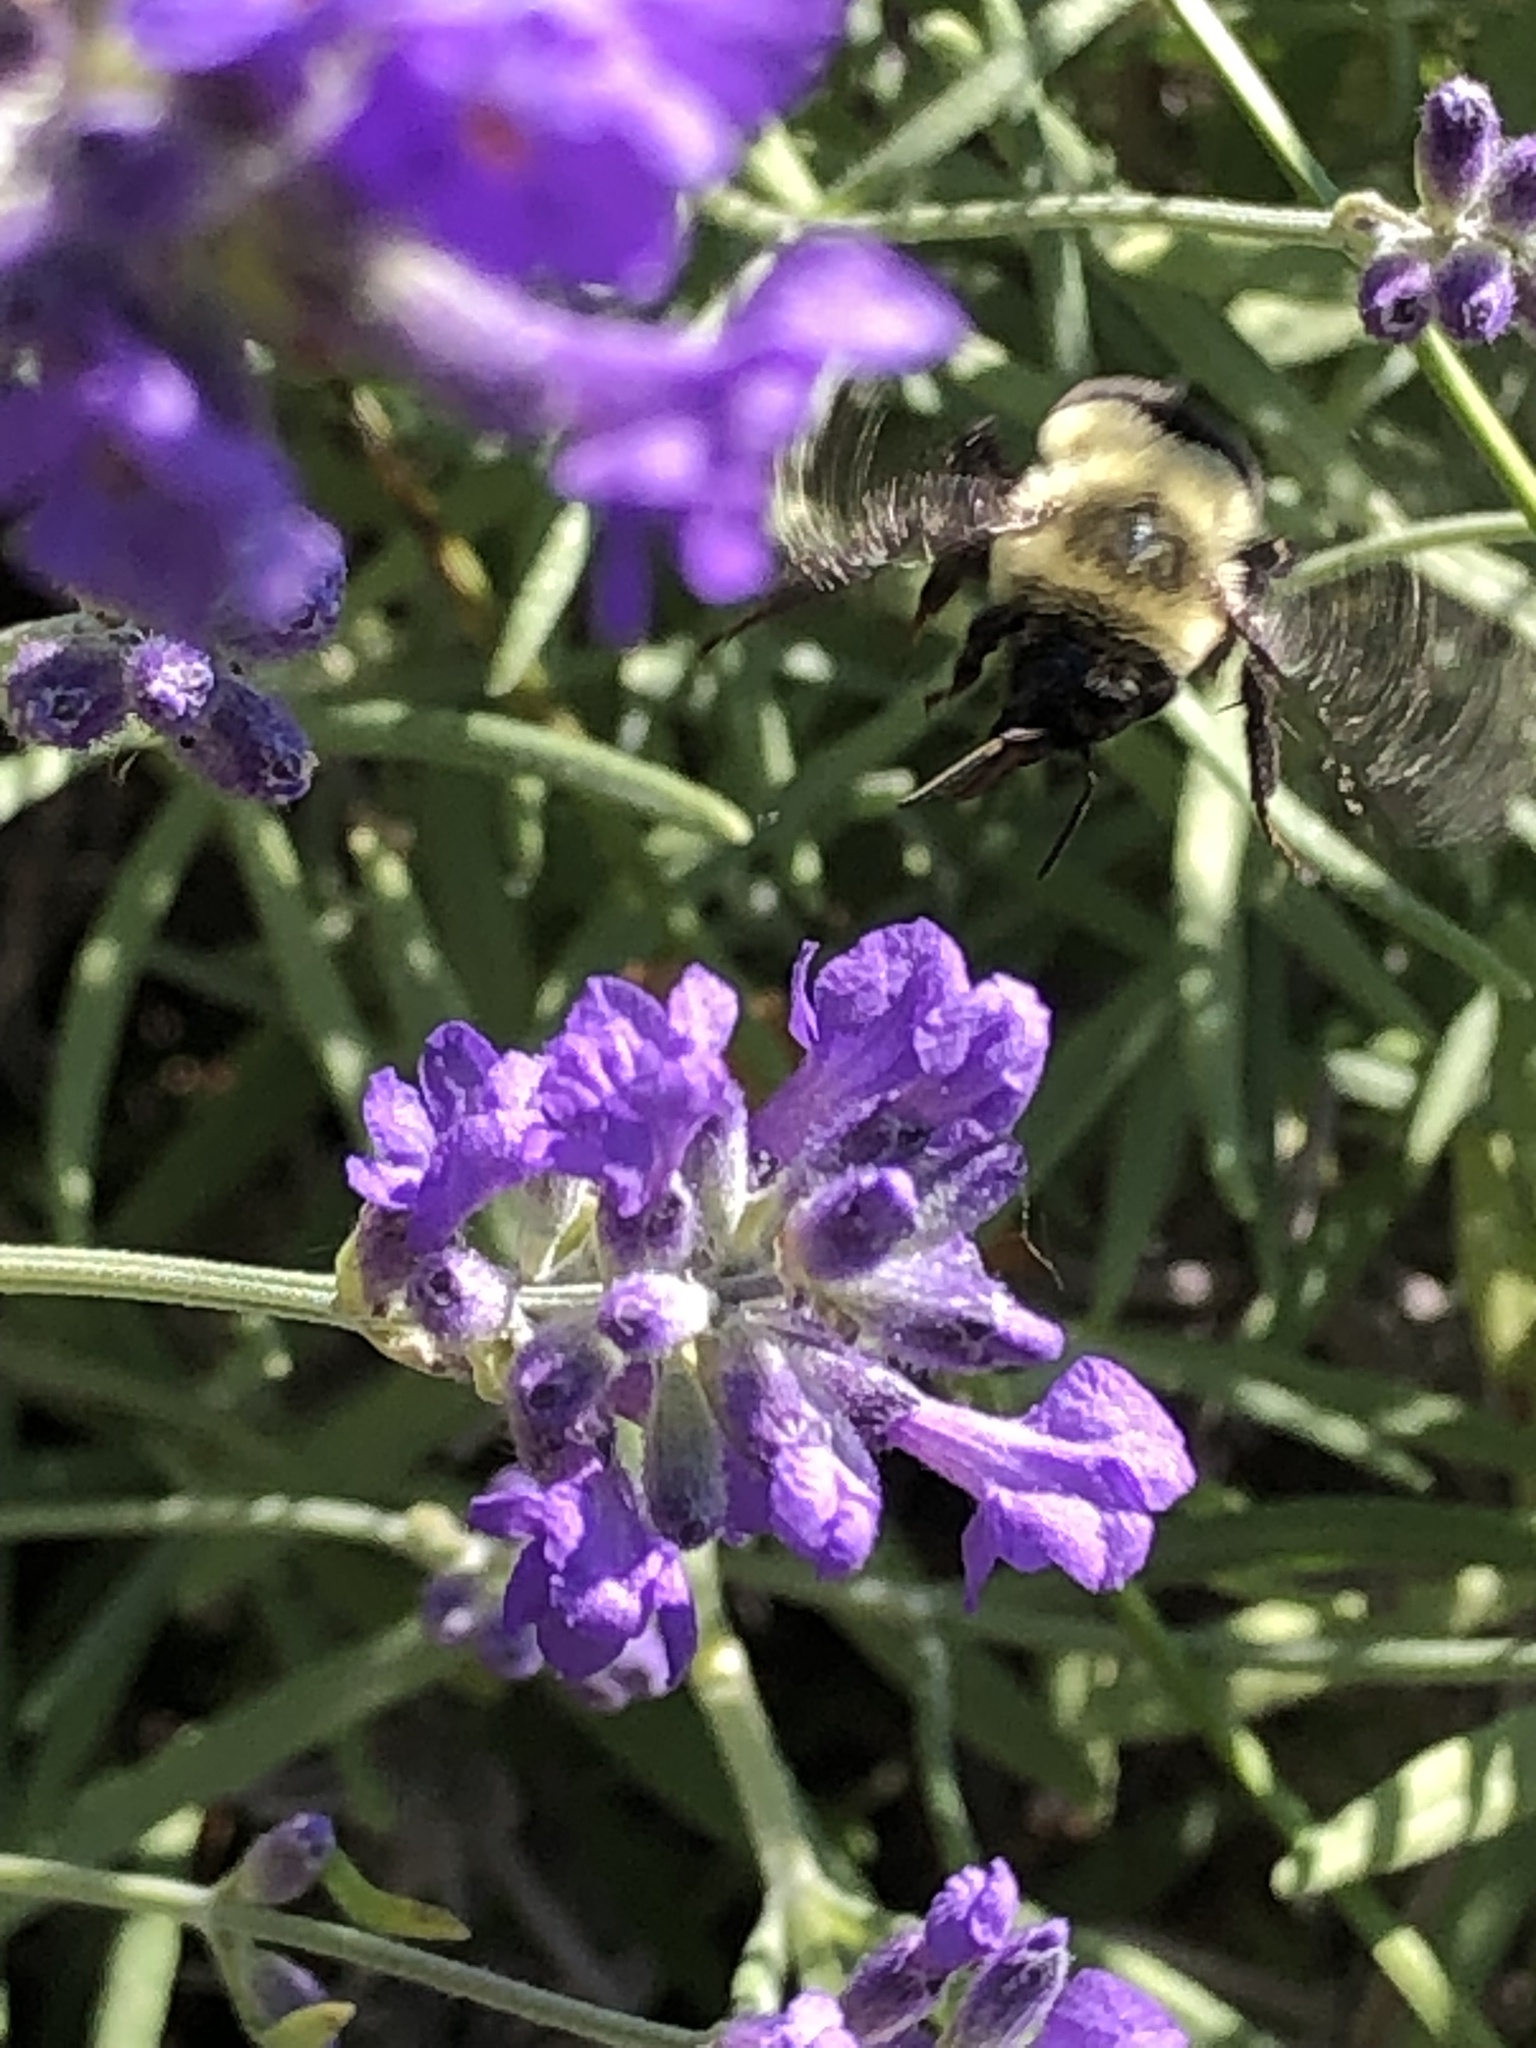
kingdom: Animalia
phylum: Arthropoda
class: Insecta
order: Hymenoptera
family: Apidae
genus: Bombus
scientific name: Bombus impatiens
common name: Common eastern bumble bee
